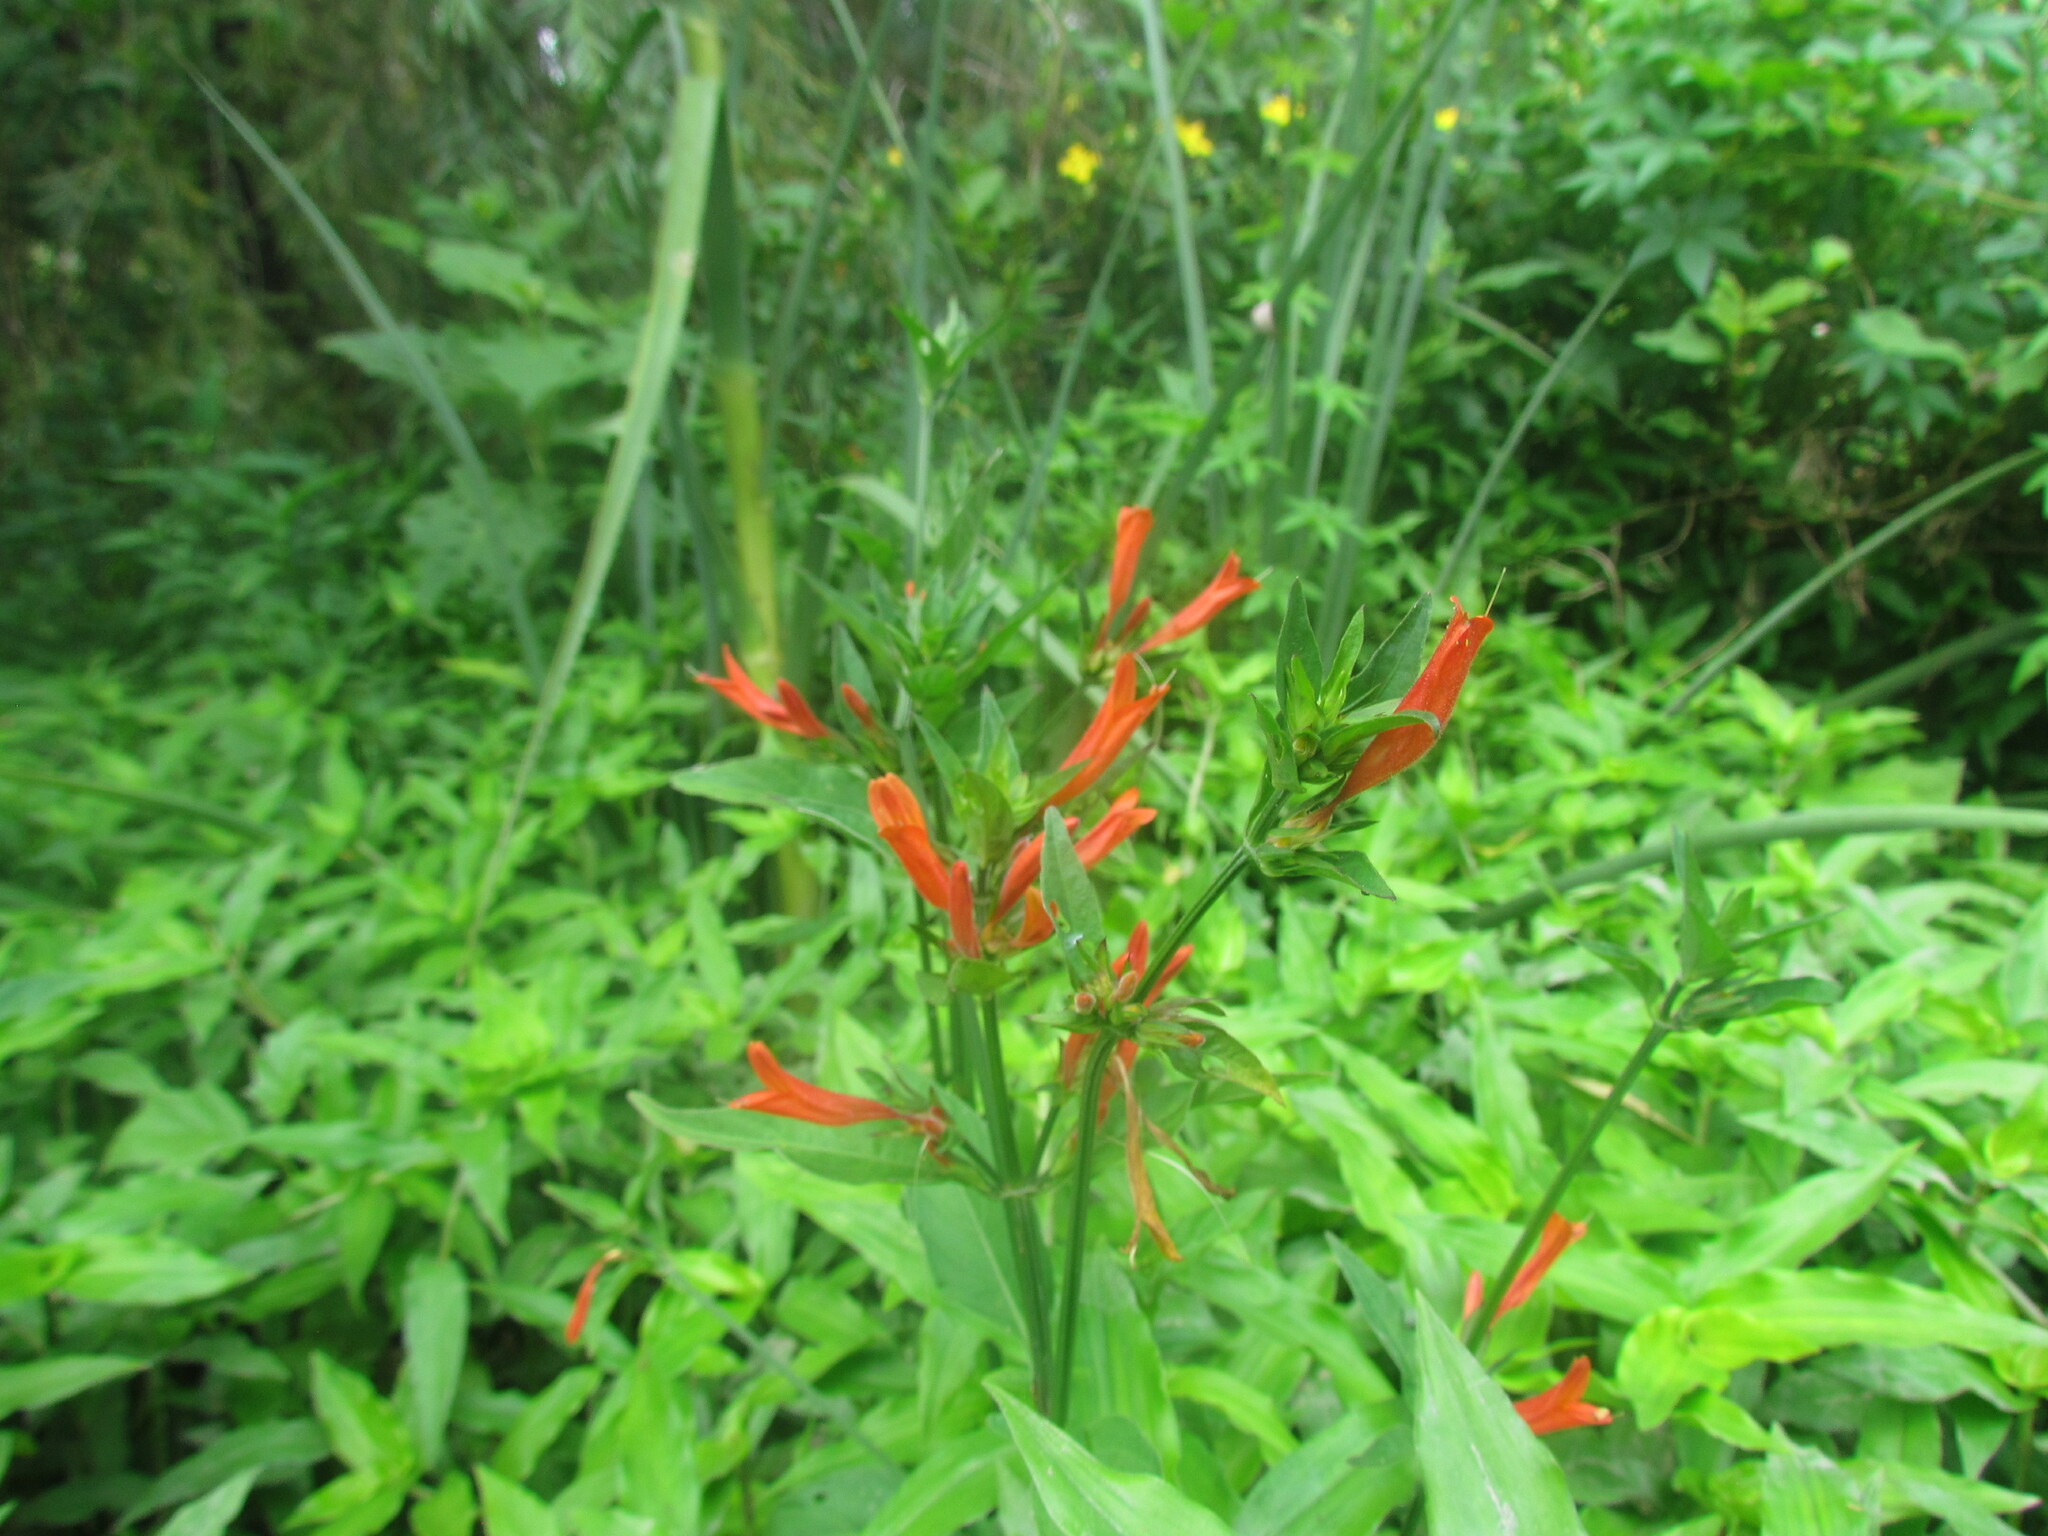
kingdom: Plantae
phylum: Tracheophyta
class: Magnoliopsida
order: Lamiales
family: Acanthaceae
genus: Dicliptera
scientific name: Dicliptera squarrosa
